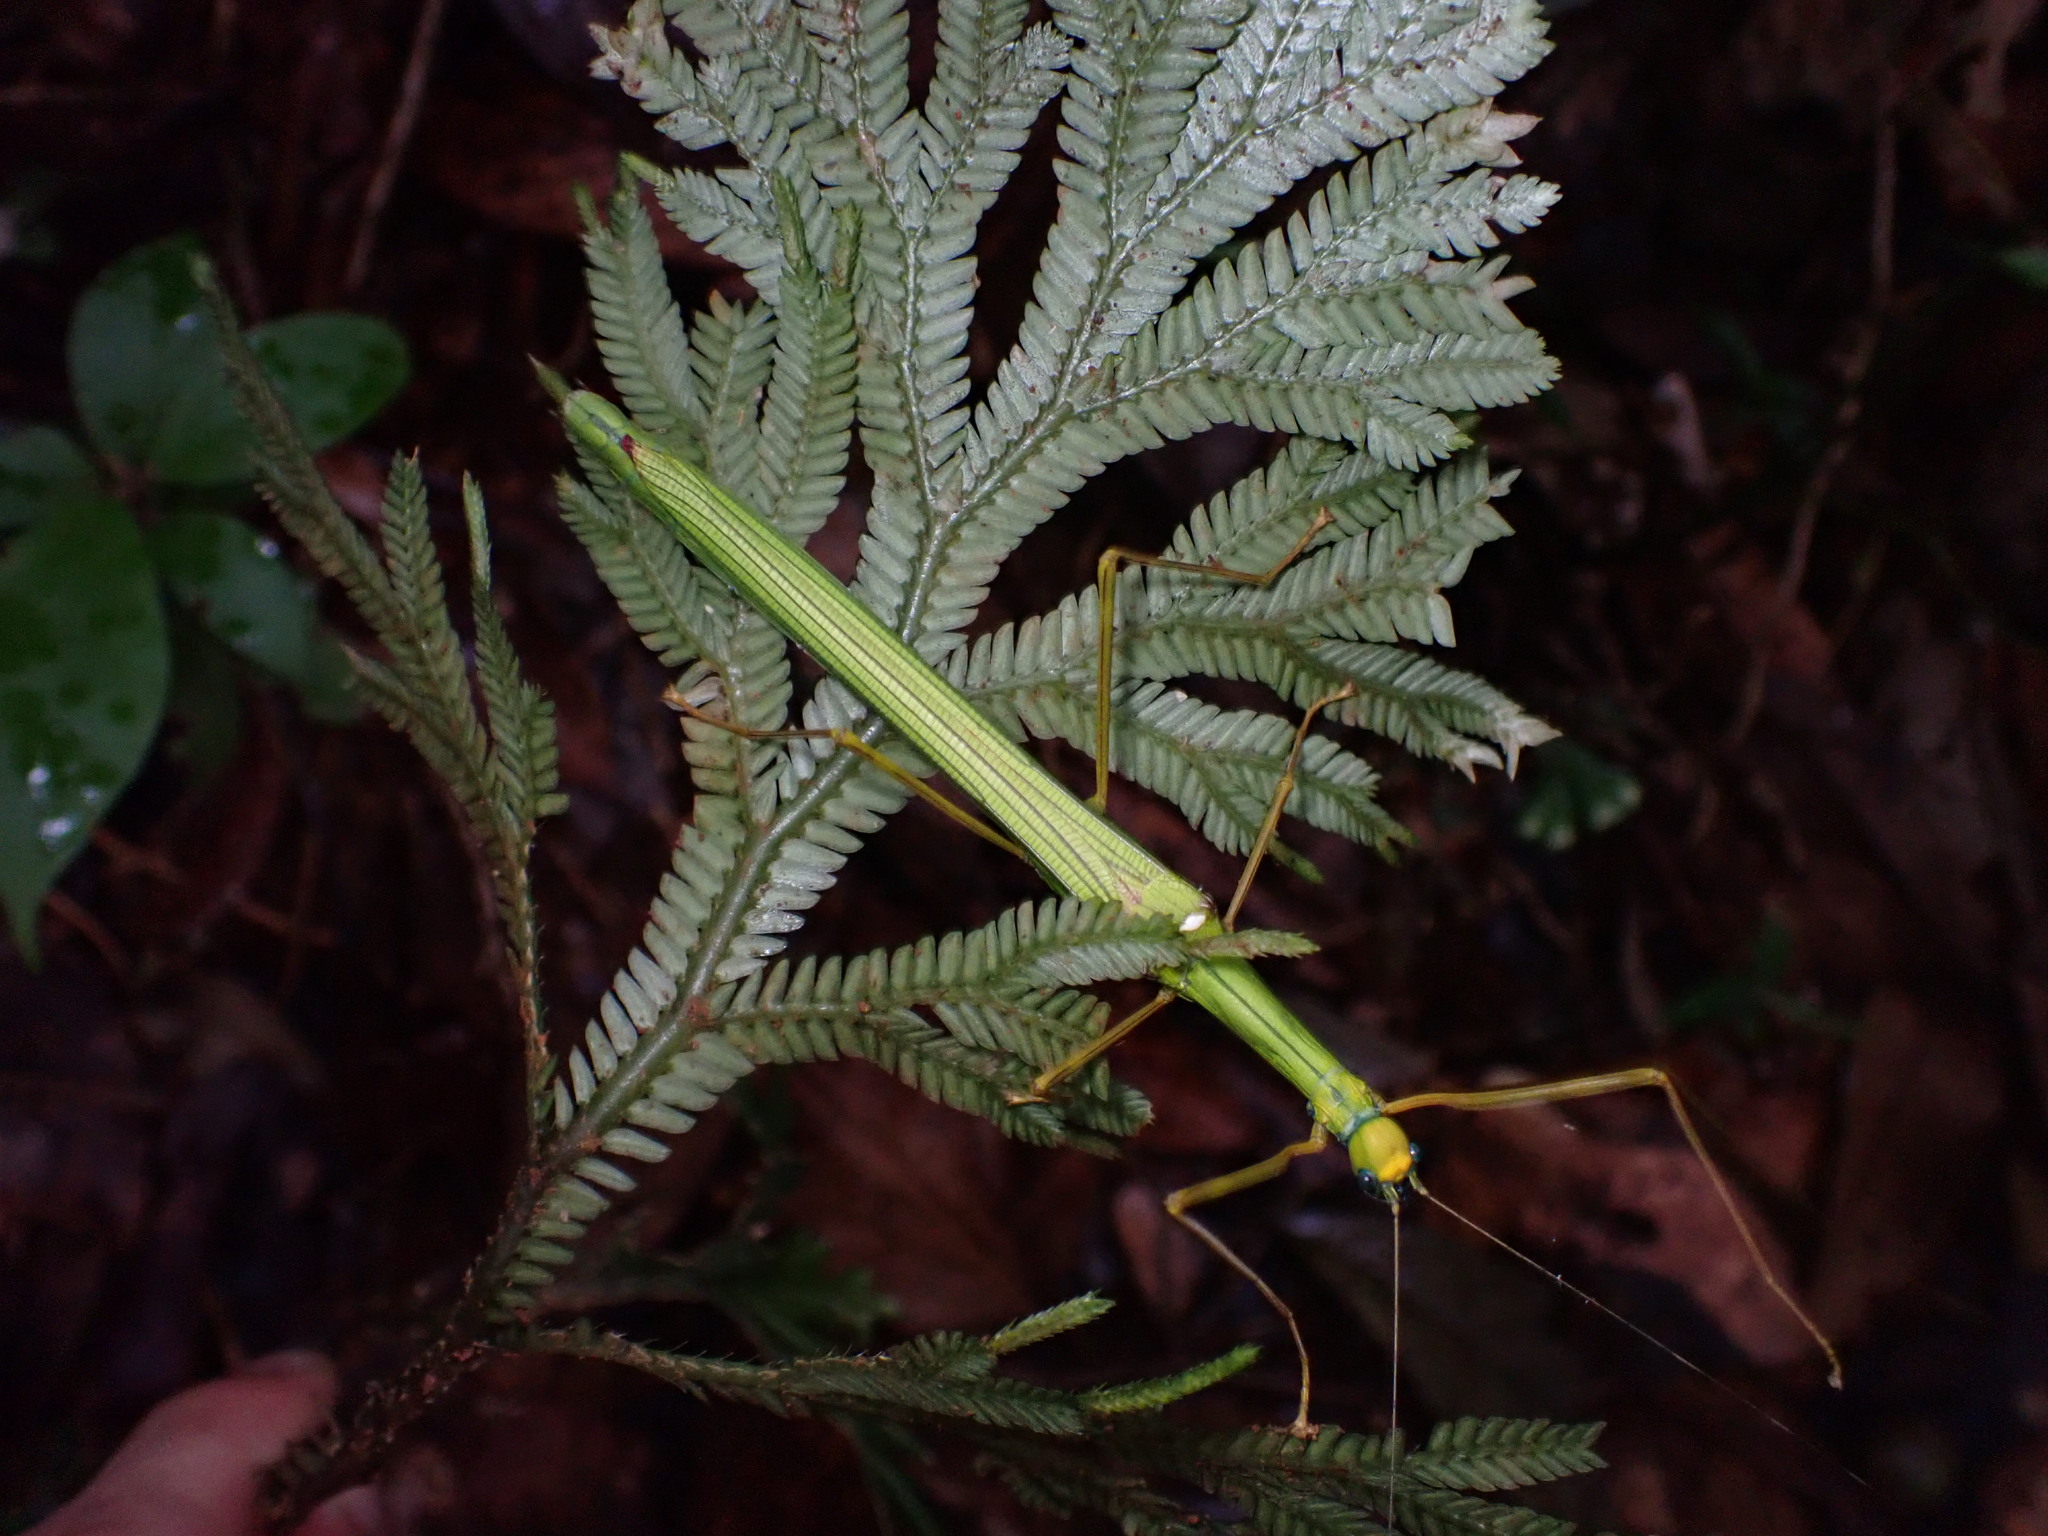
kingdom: Animalia
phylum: Arthropoda
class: Insecta
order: Phasmida
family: Lonchodidae
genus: Marmessoidea
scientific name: Marmessoidea rosea
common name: Yellow-spotted flying stick
